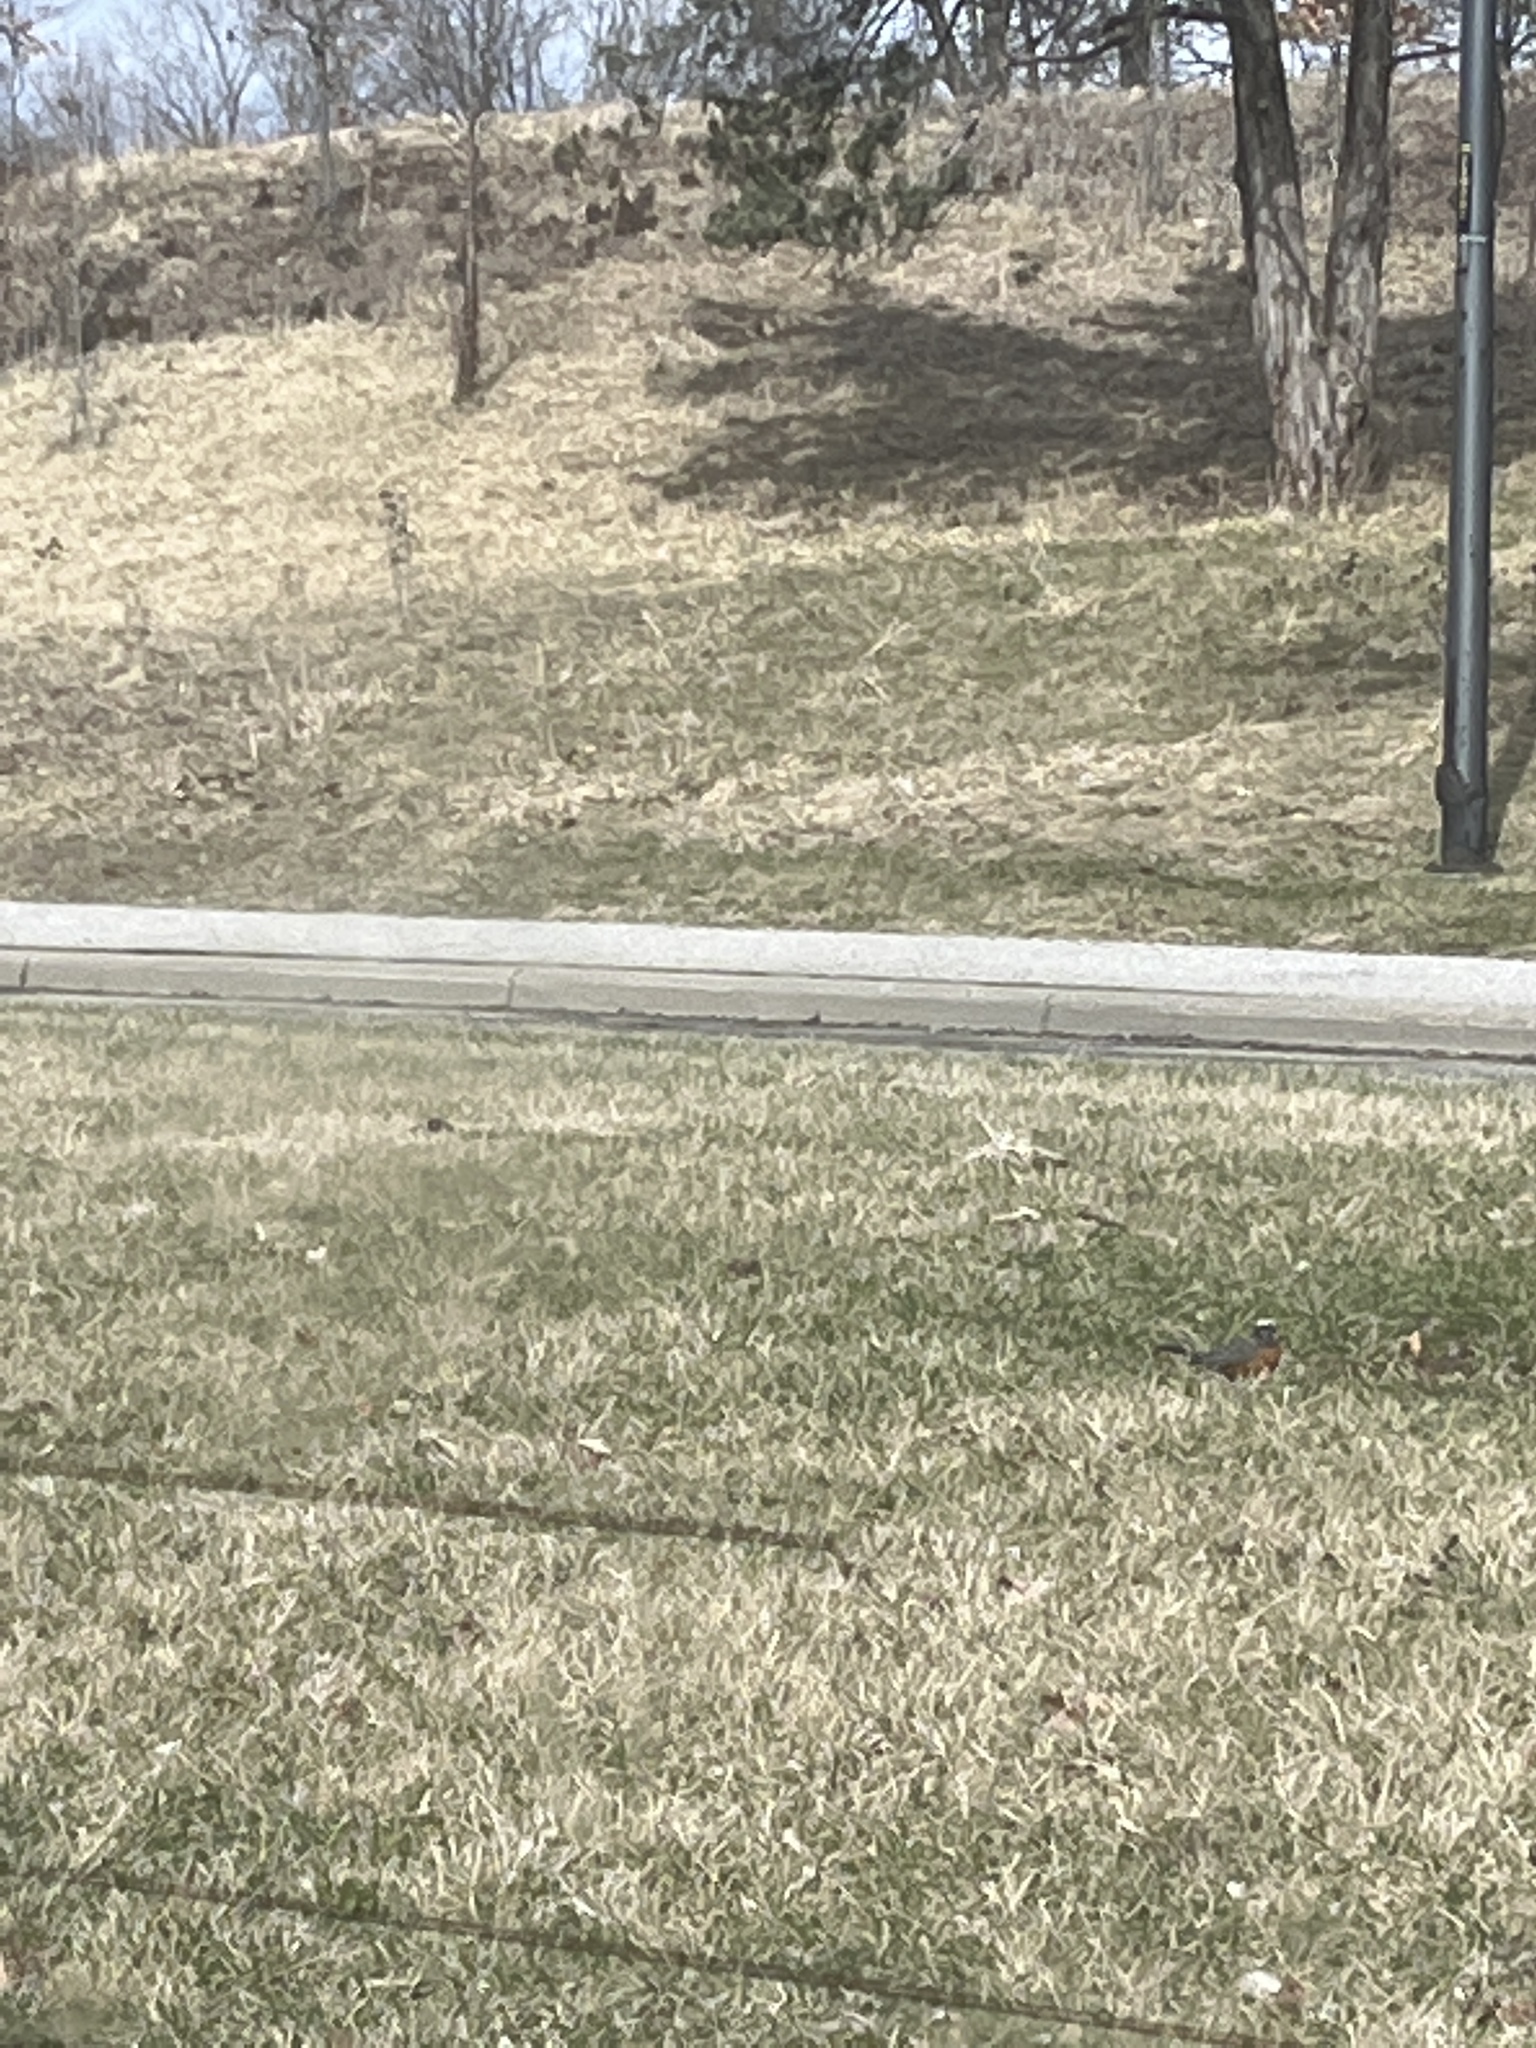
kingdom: Animalia
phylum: Chordata
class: Aves
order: Passeriformes
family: Turdidae
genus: Turdus
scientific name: Turdus migratorius
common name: American robin
